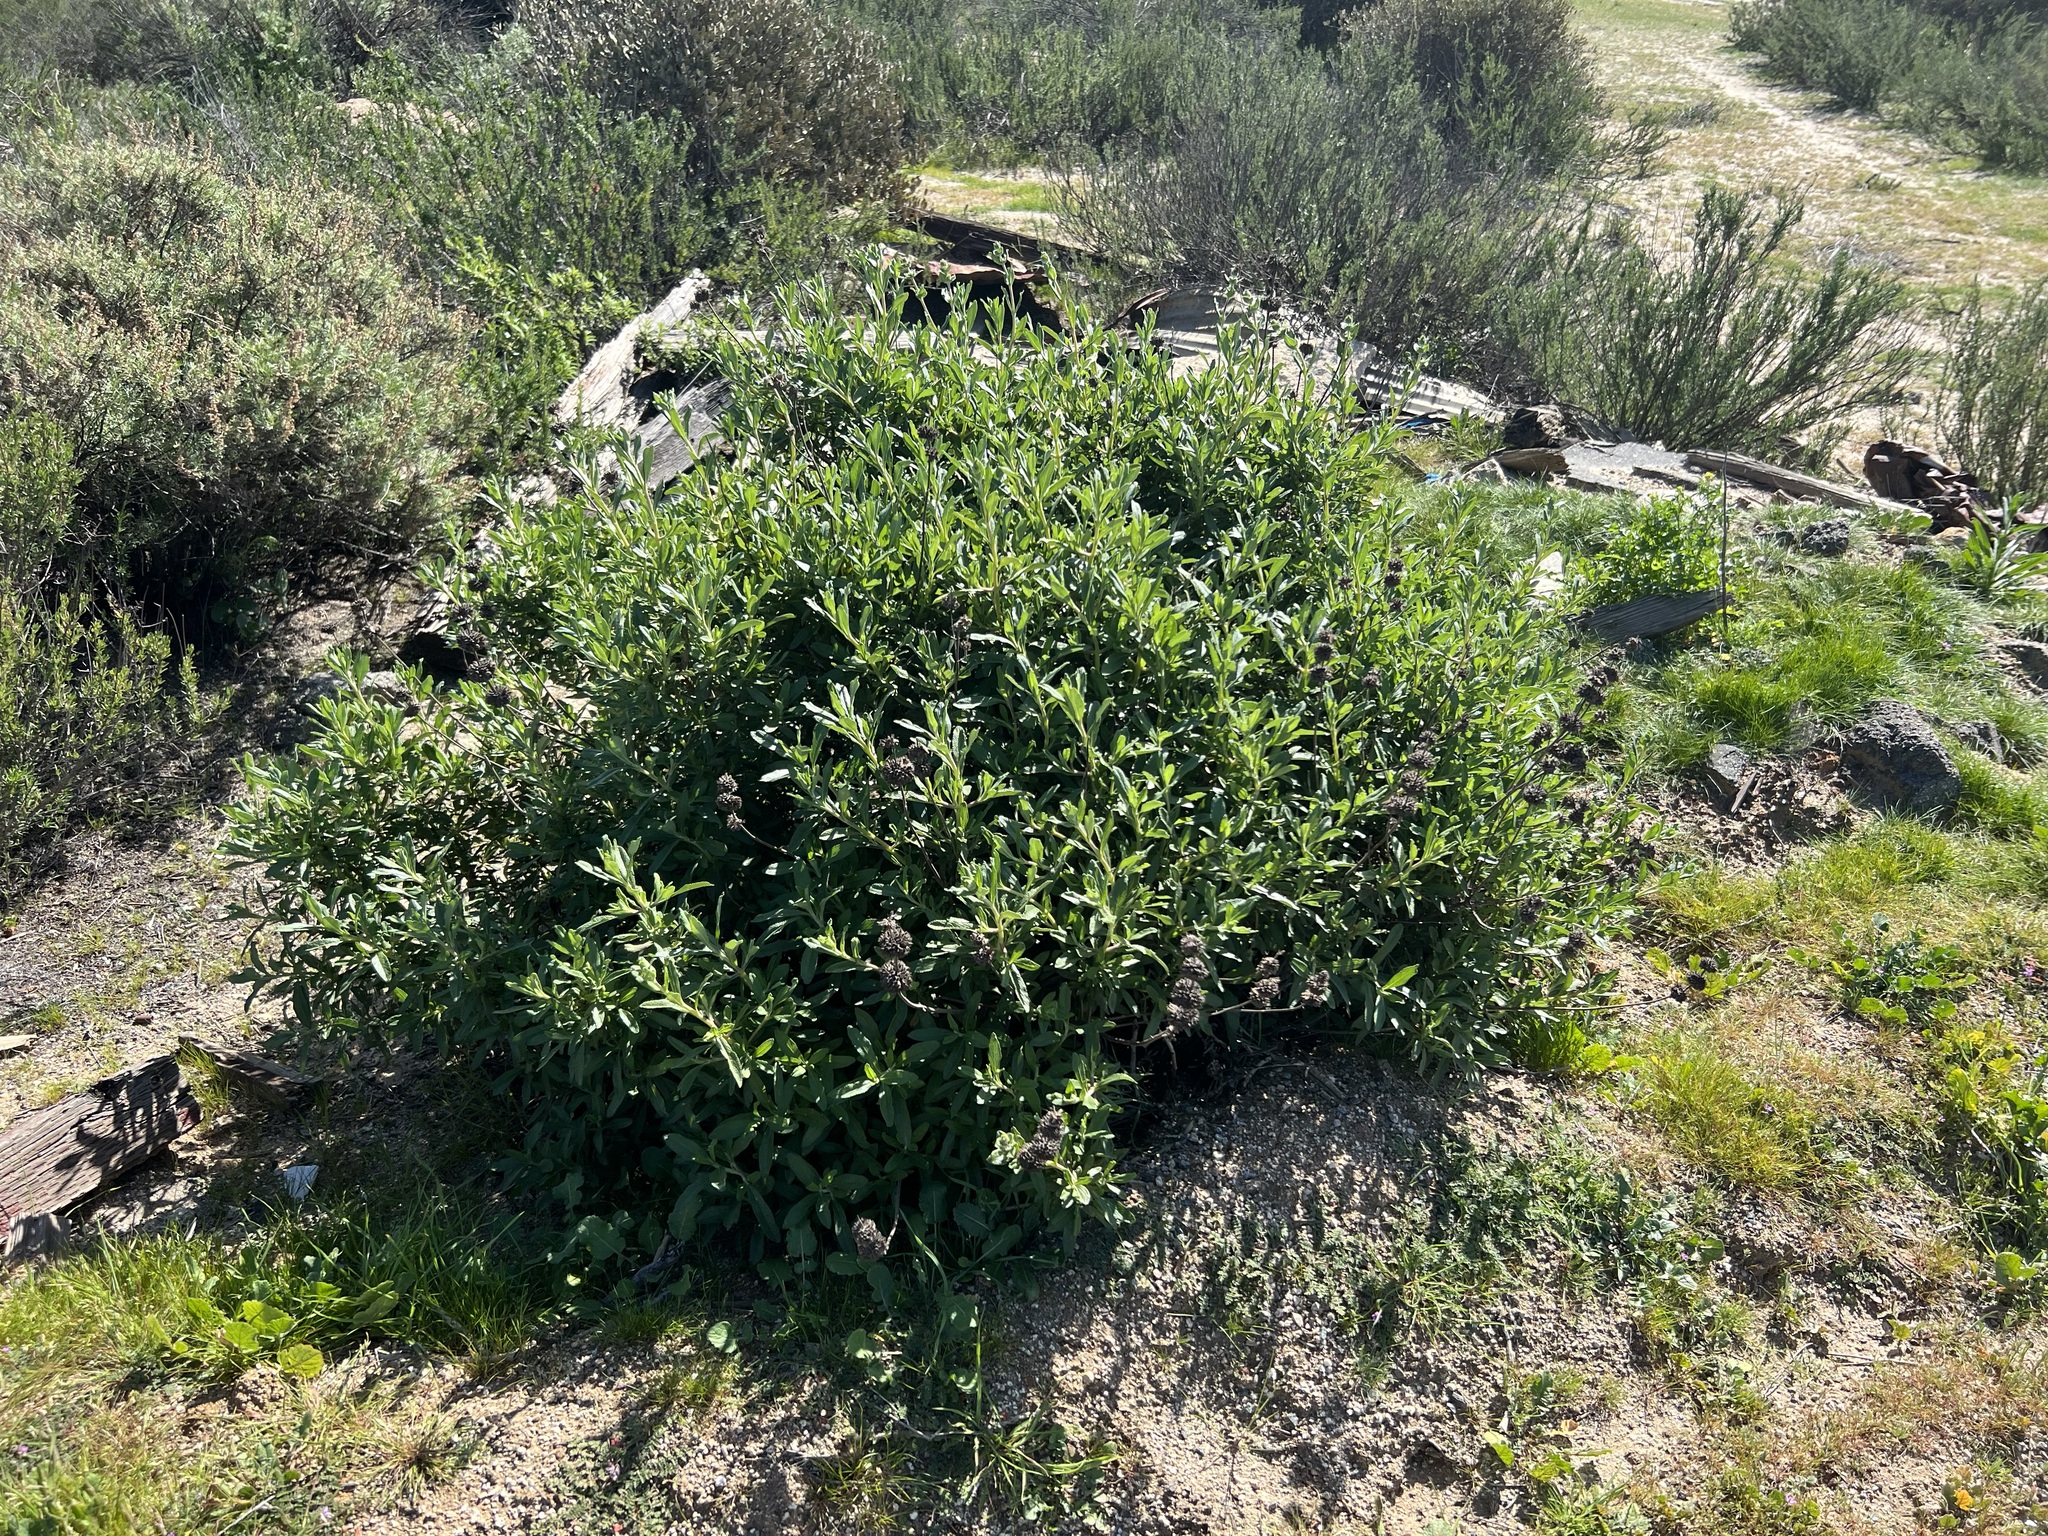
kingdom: Plantae
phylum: Tracheophyta
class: Magnoliopsida
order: Lamiales
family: Lamiaceae
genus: Salvia
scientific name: Salvia mellifera
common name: Black sage
